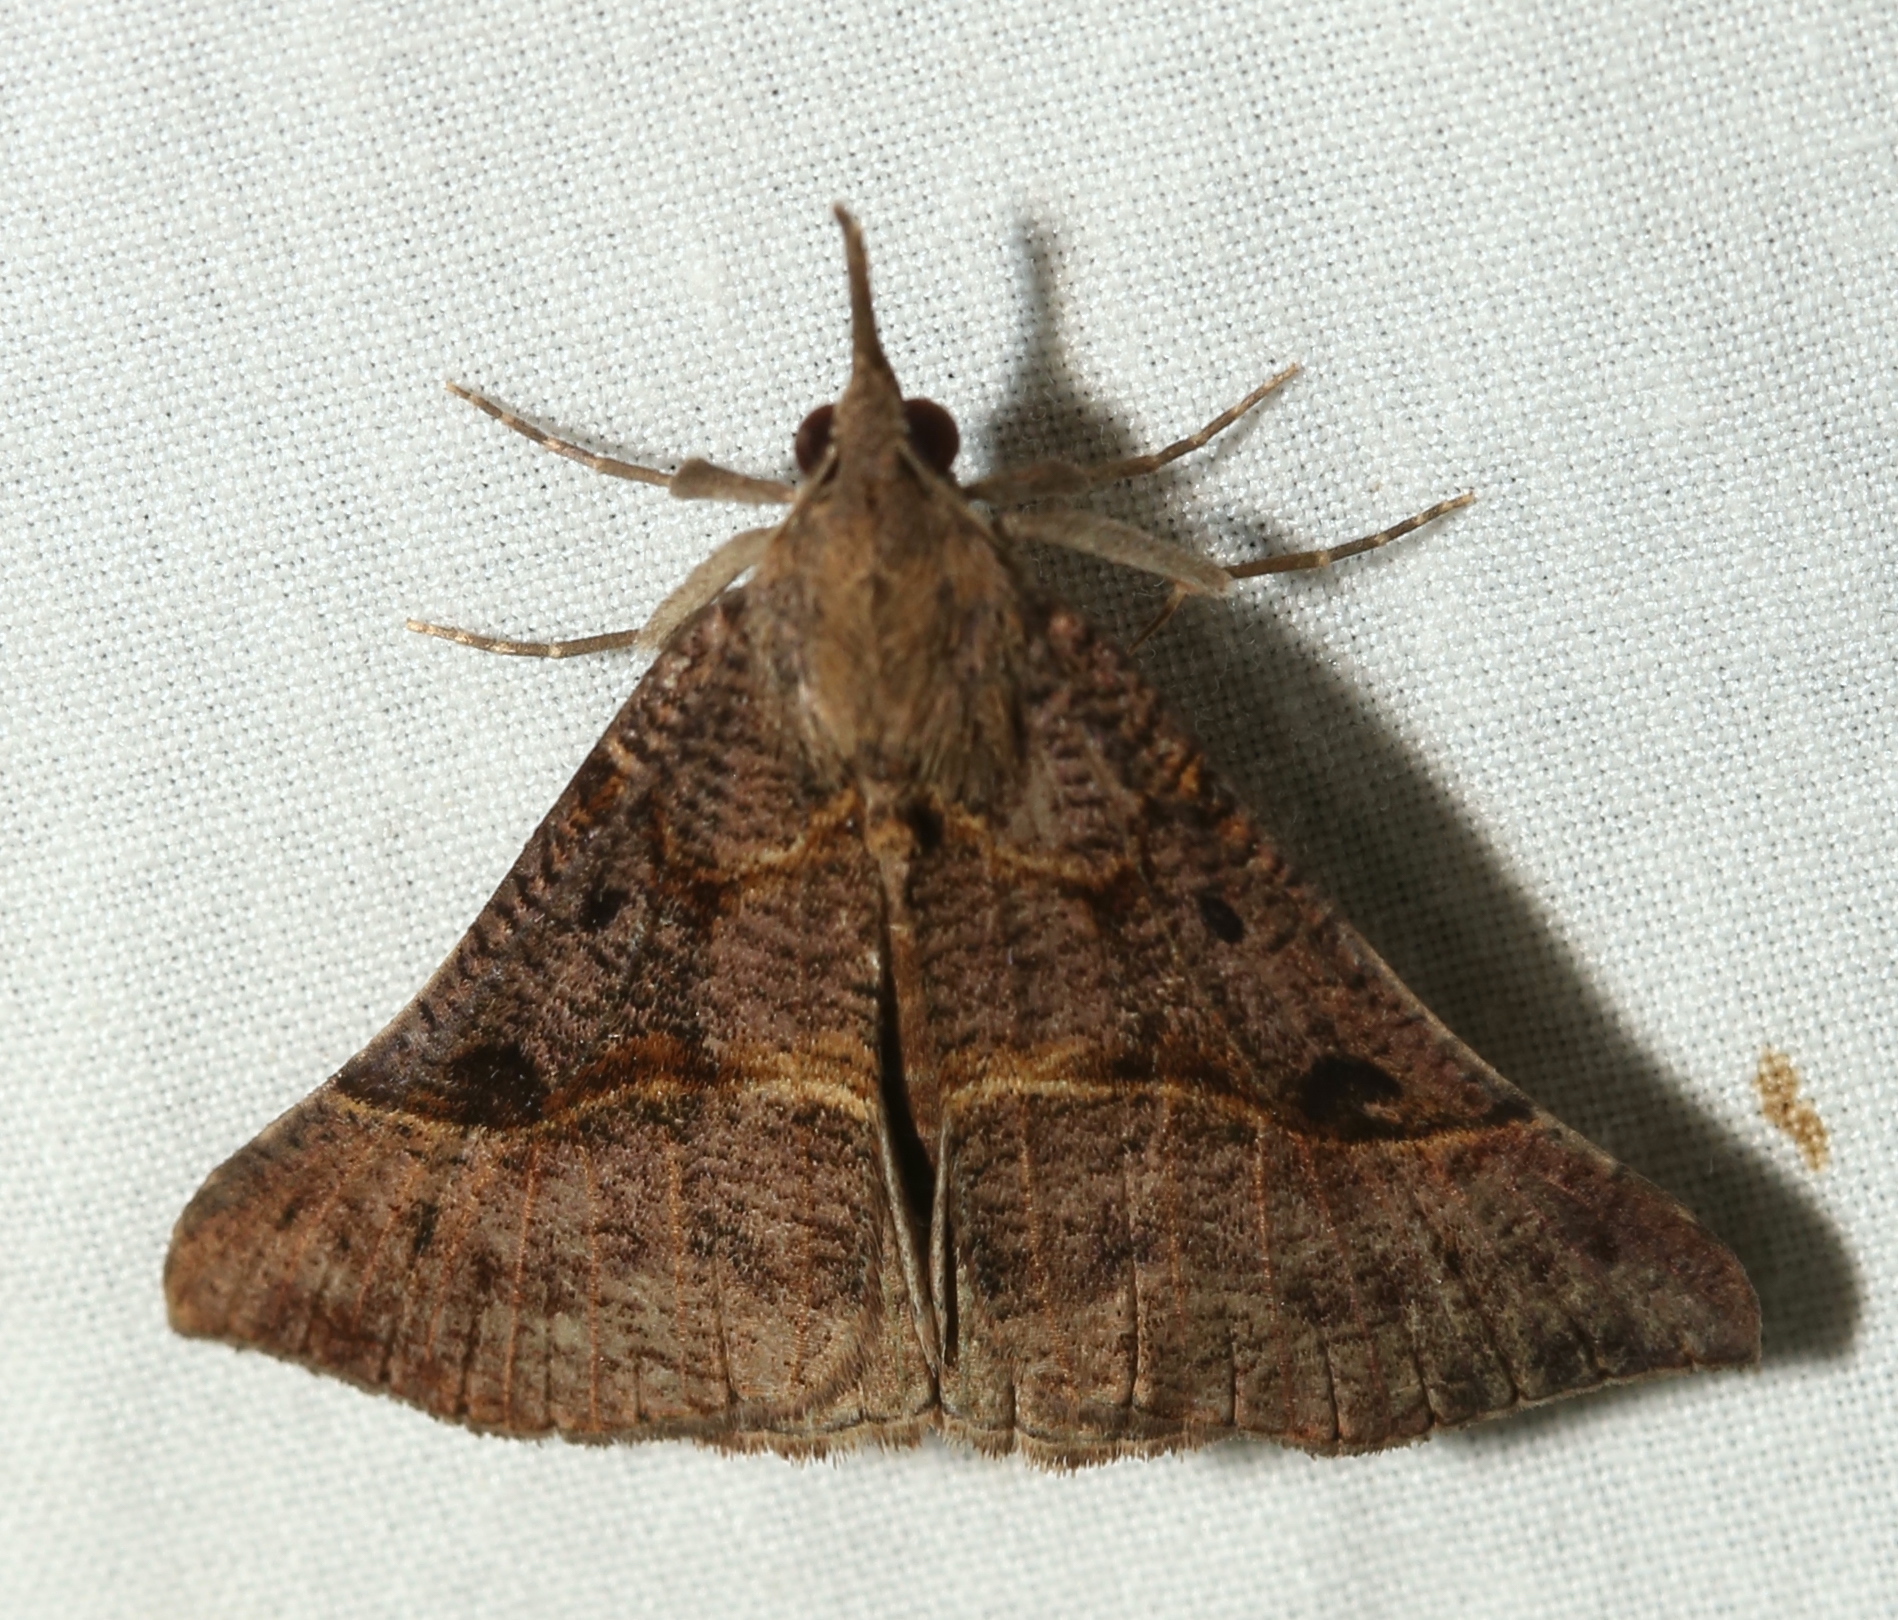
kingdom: Animalia
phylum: Arthropoda
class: Insecta
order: Lepidoptera
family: Erebidae
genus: Hypena
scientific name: Hypena edictalis
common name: Large snout
